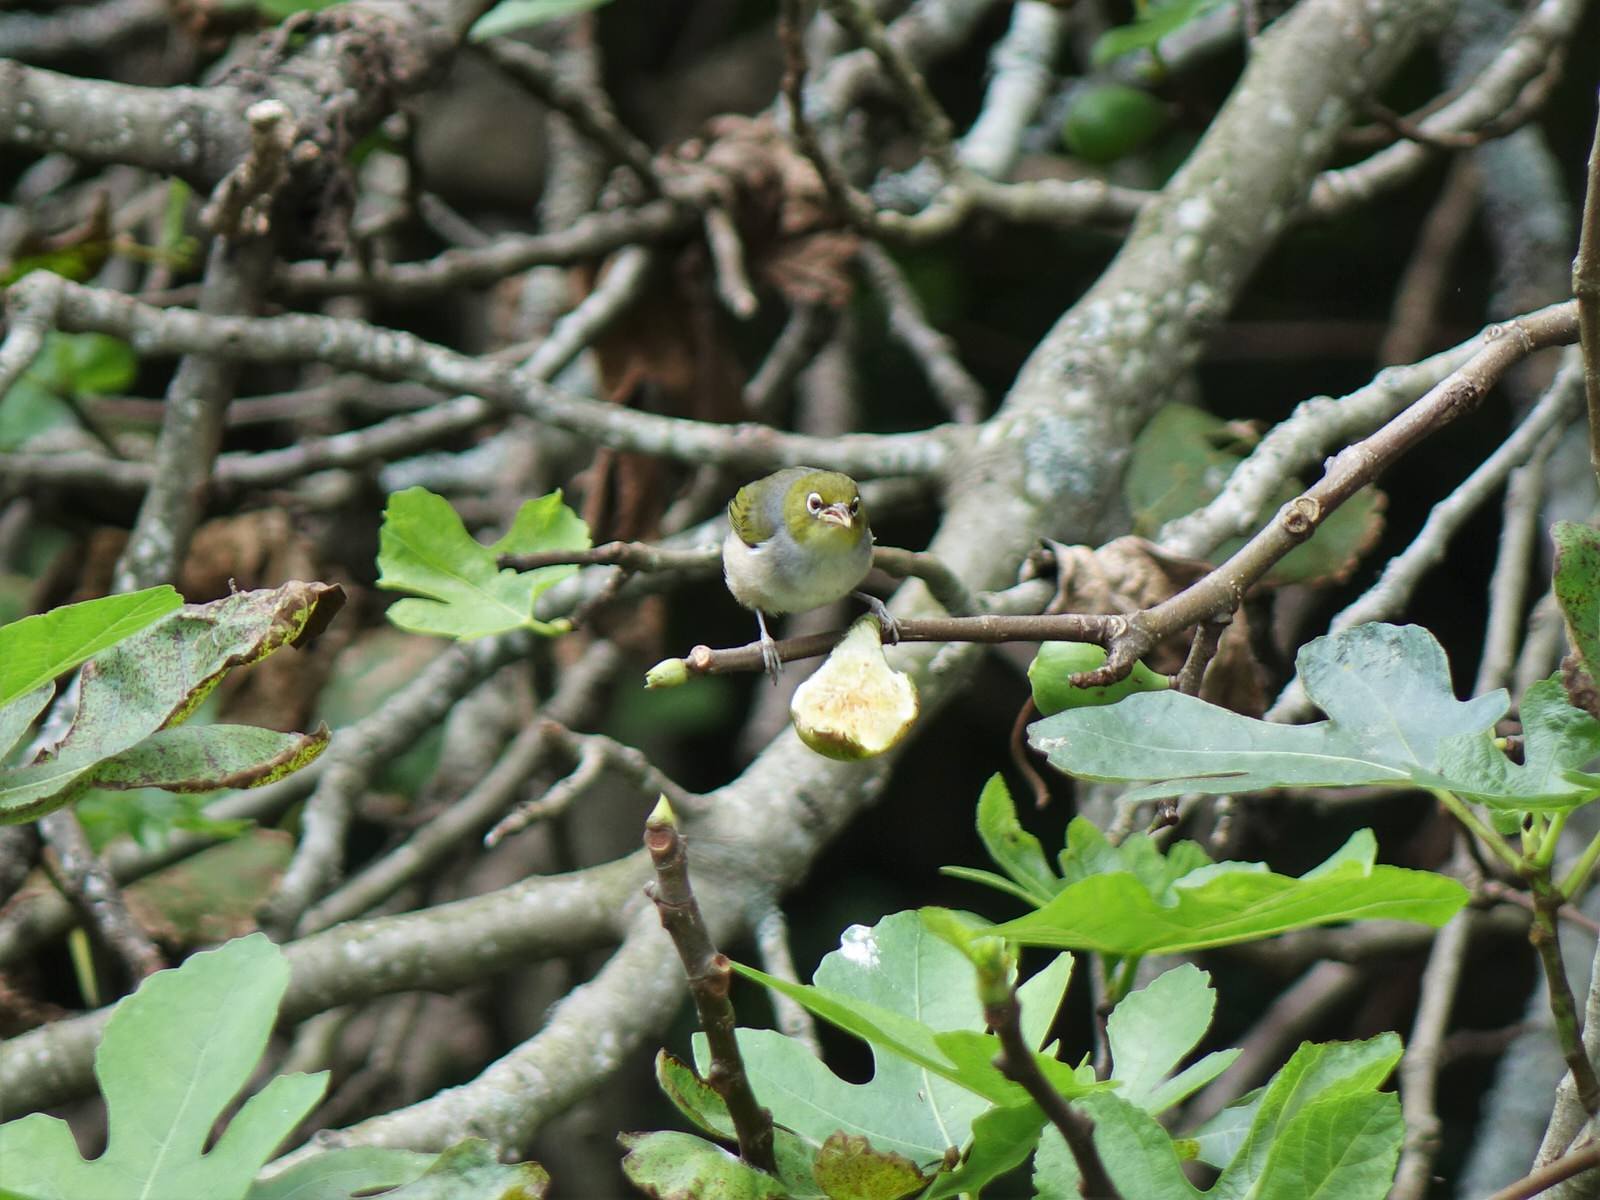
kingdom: Animalia
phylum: Chordata
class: Aves
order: Passeriformes
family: Zosteropidae
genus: Zosterops
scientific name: Zosterops lateralis
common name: Silvereye
